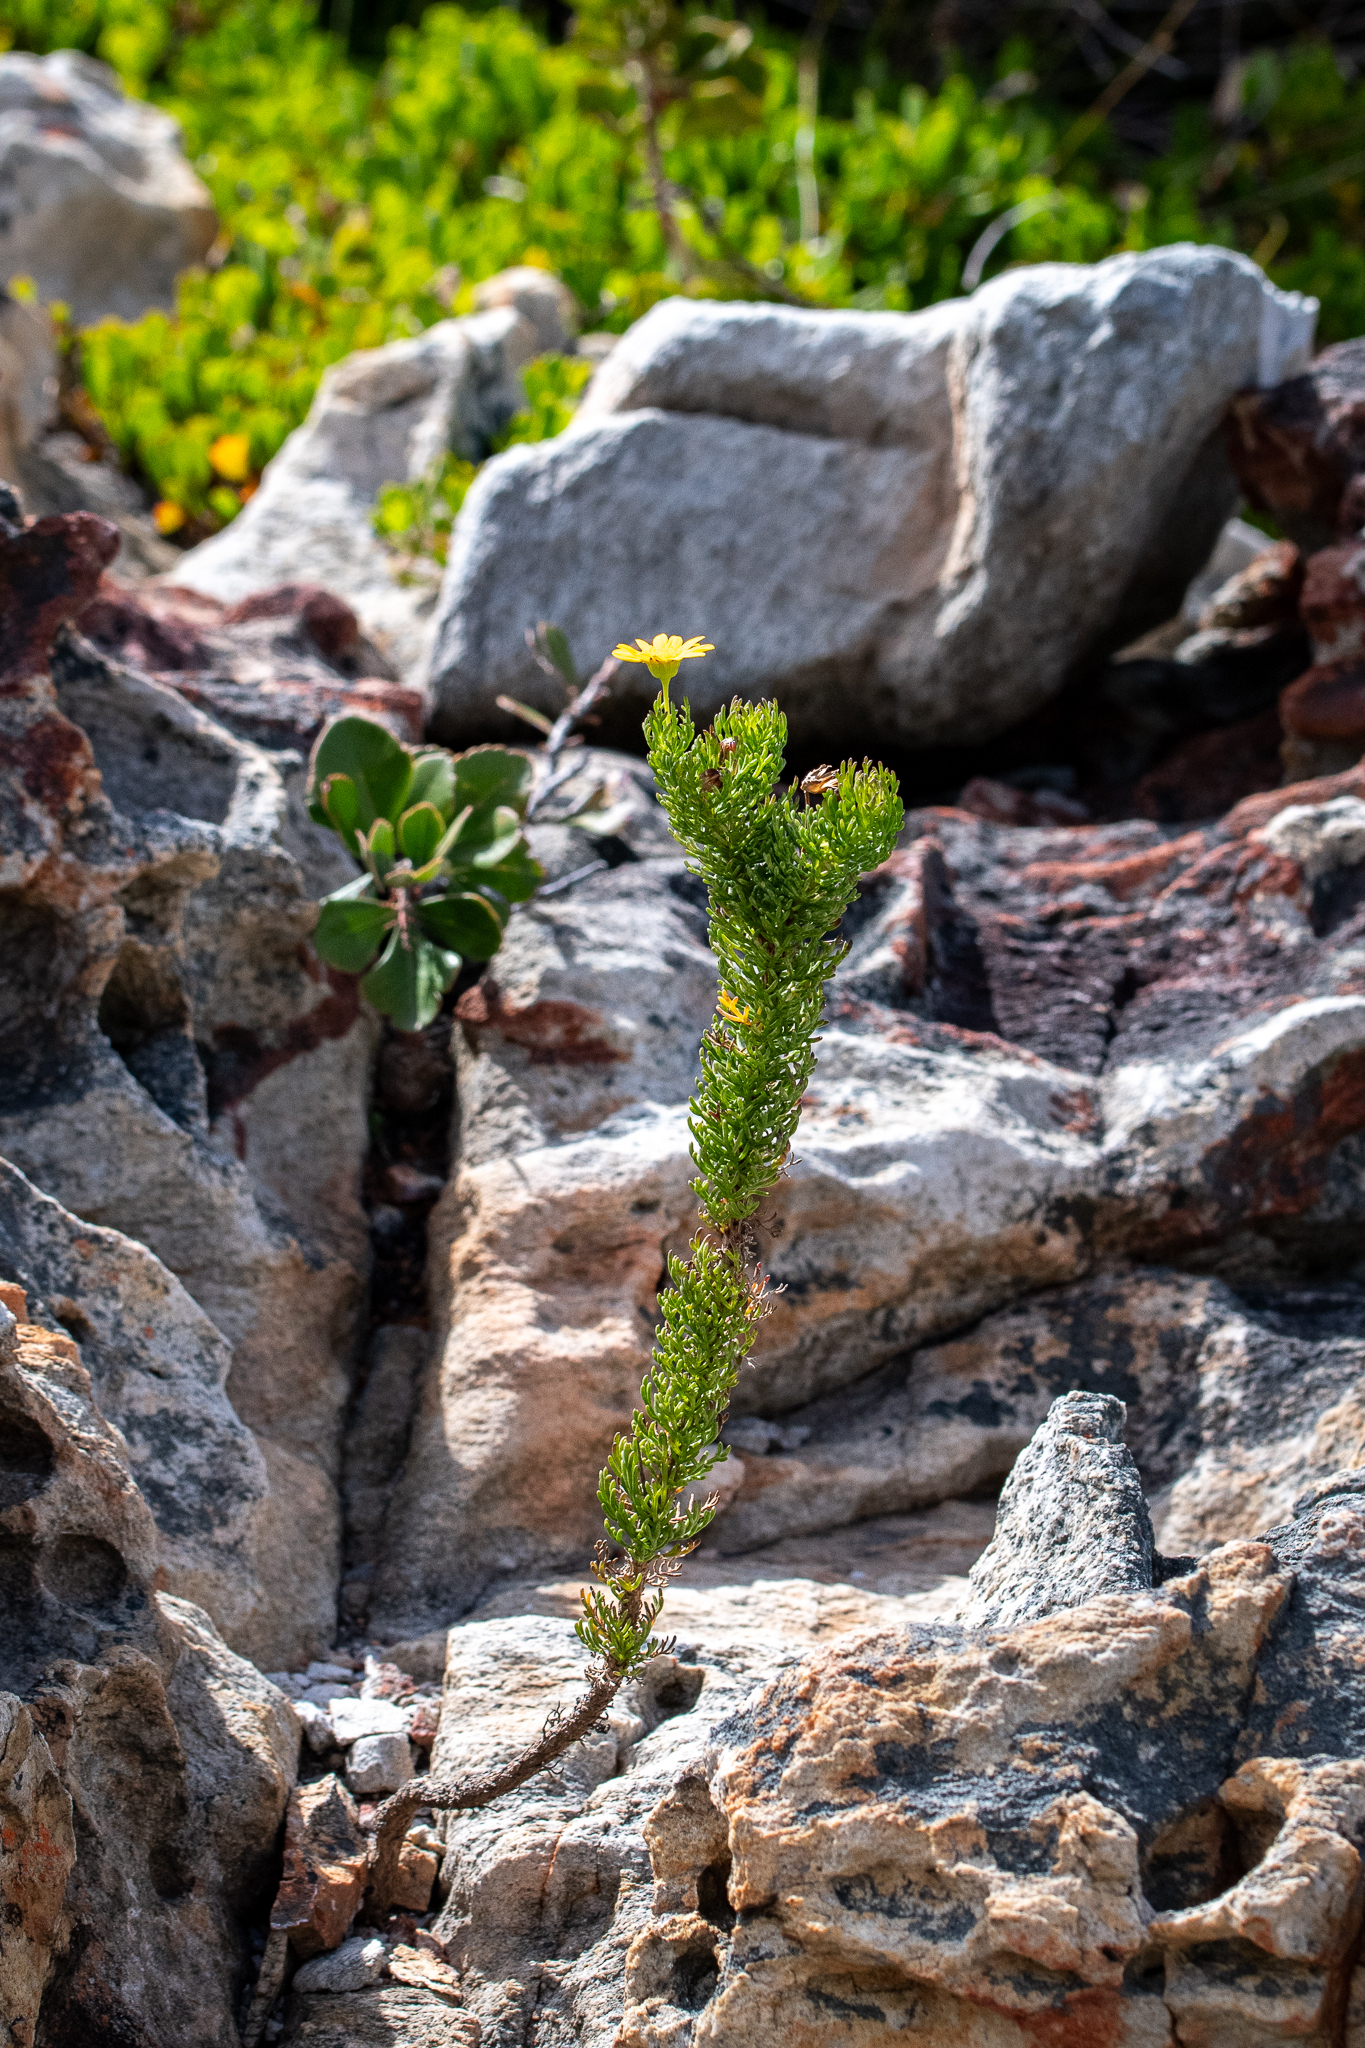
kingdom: Plantae
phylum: Tracheophyta
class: Magnoliopsida
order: Asterales
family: Asteraceae
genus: Euryops
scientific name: Euryops abrotanifolius
